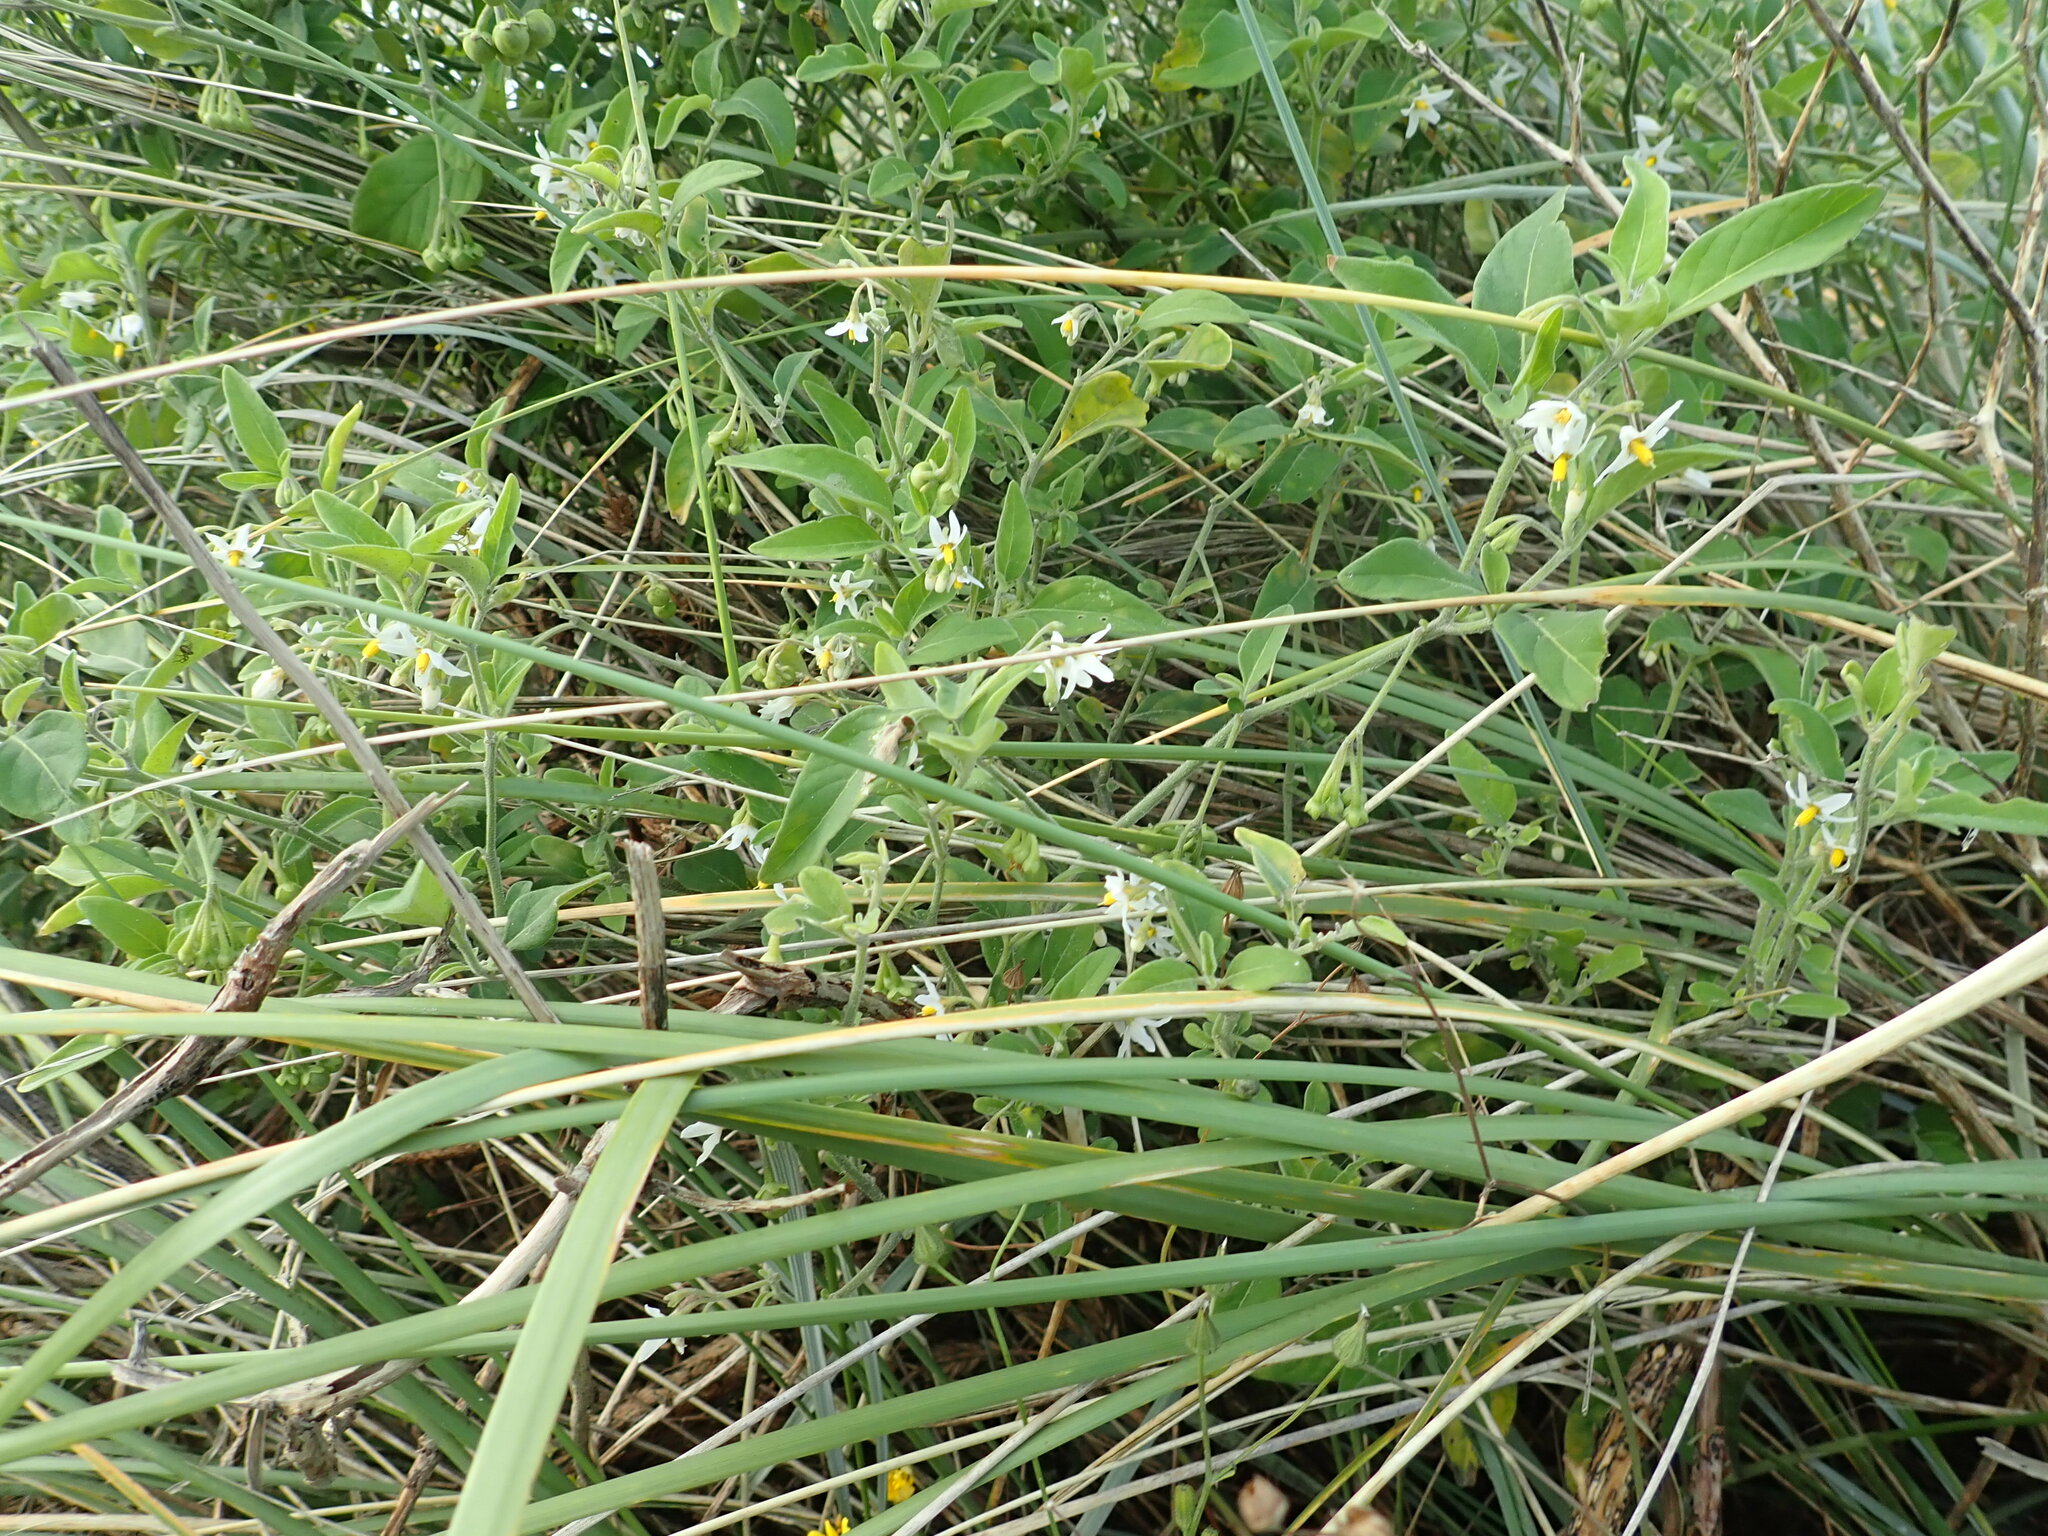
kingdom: Plantae
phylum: Tracheophyta
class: Magnoliopsida
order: Solanales
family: Solanaceae
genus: Solanum
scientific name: Solanum chenopodioides
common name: Tall nightshade
